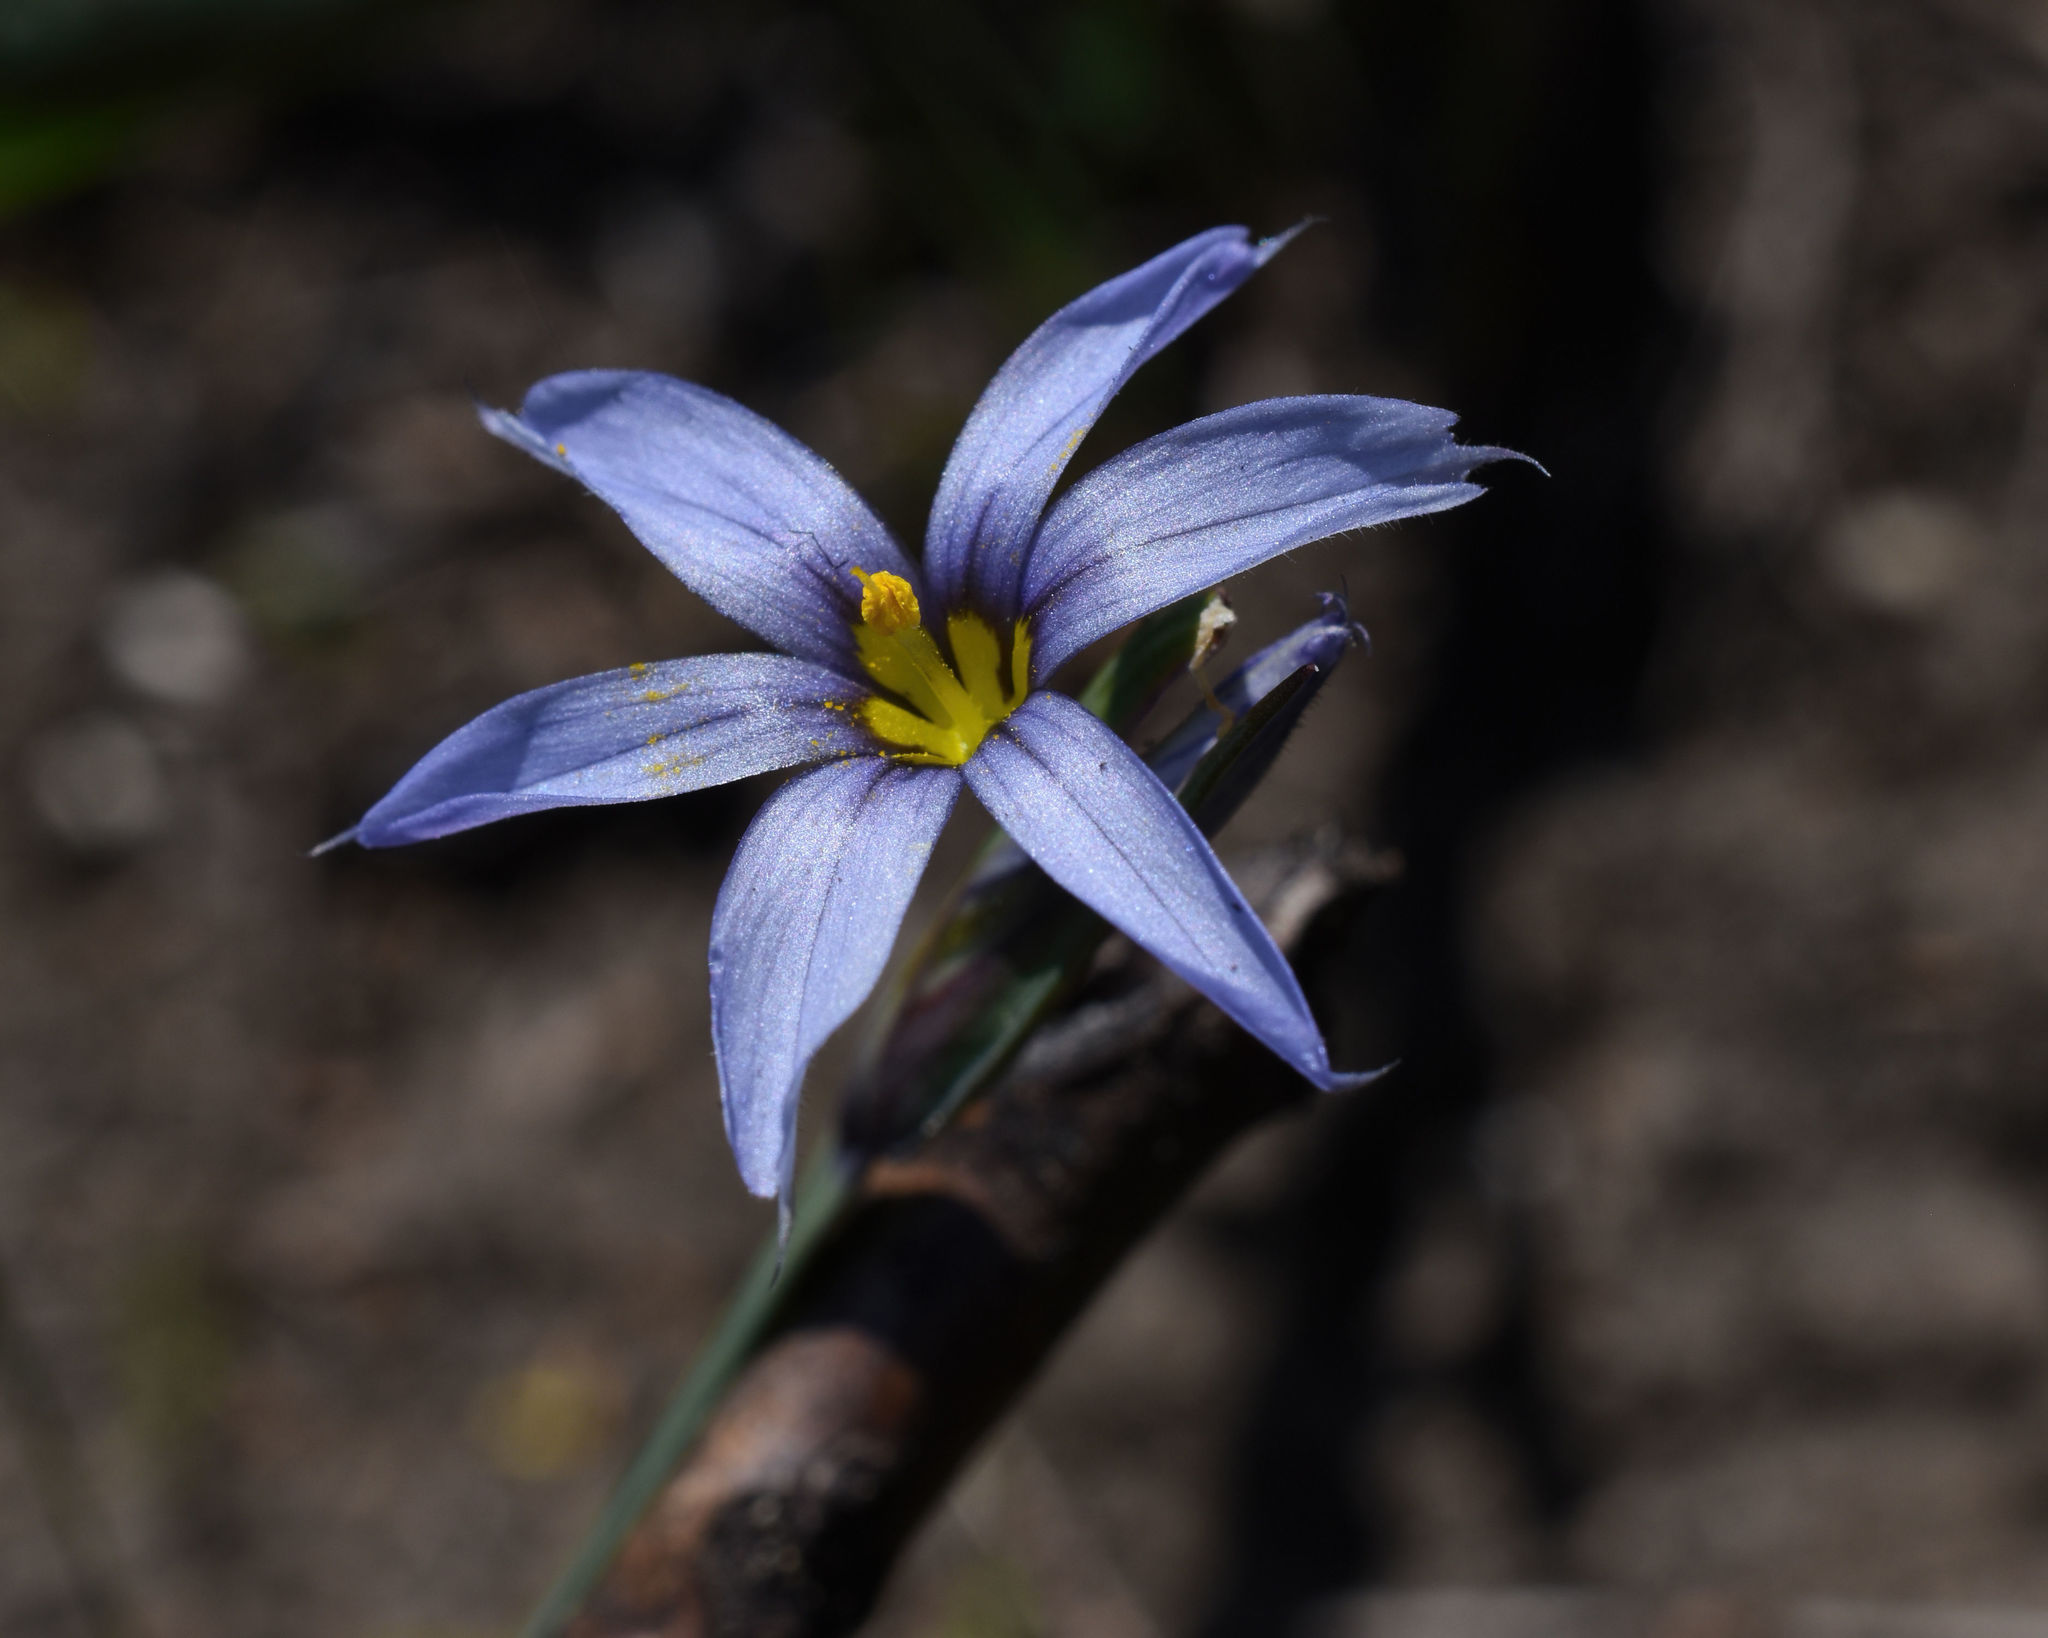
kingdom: Plantae
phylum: Tracheophyta
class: Liliopsida
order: Asparagales
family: Iridaceae
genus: Sisyrinchium
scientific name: Sisyrinchium campestre
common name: Prairie blue-eyed-grass
